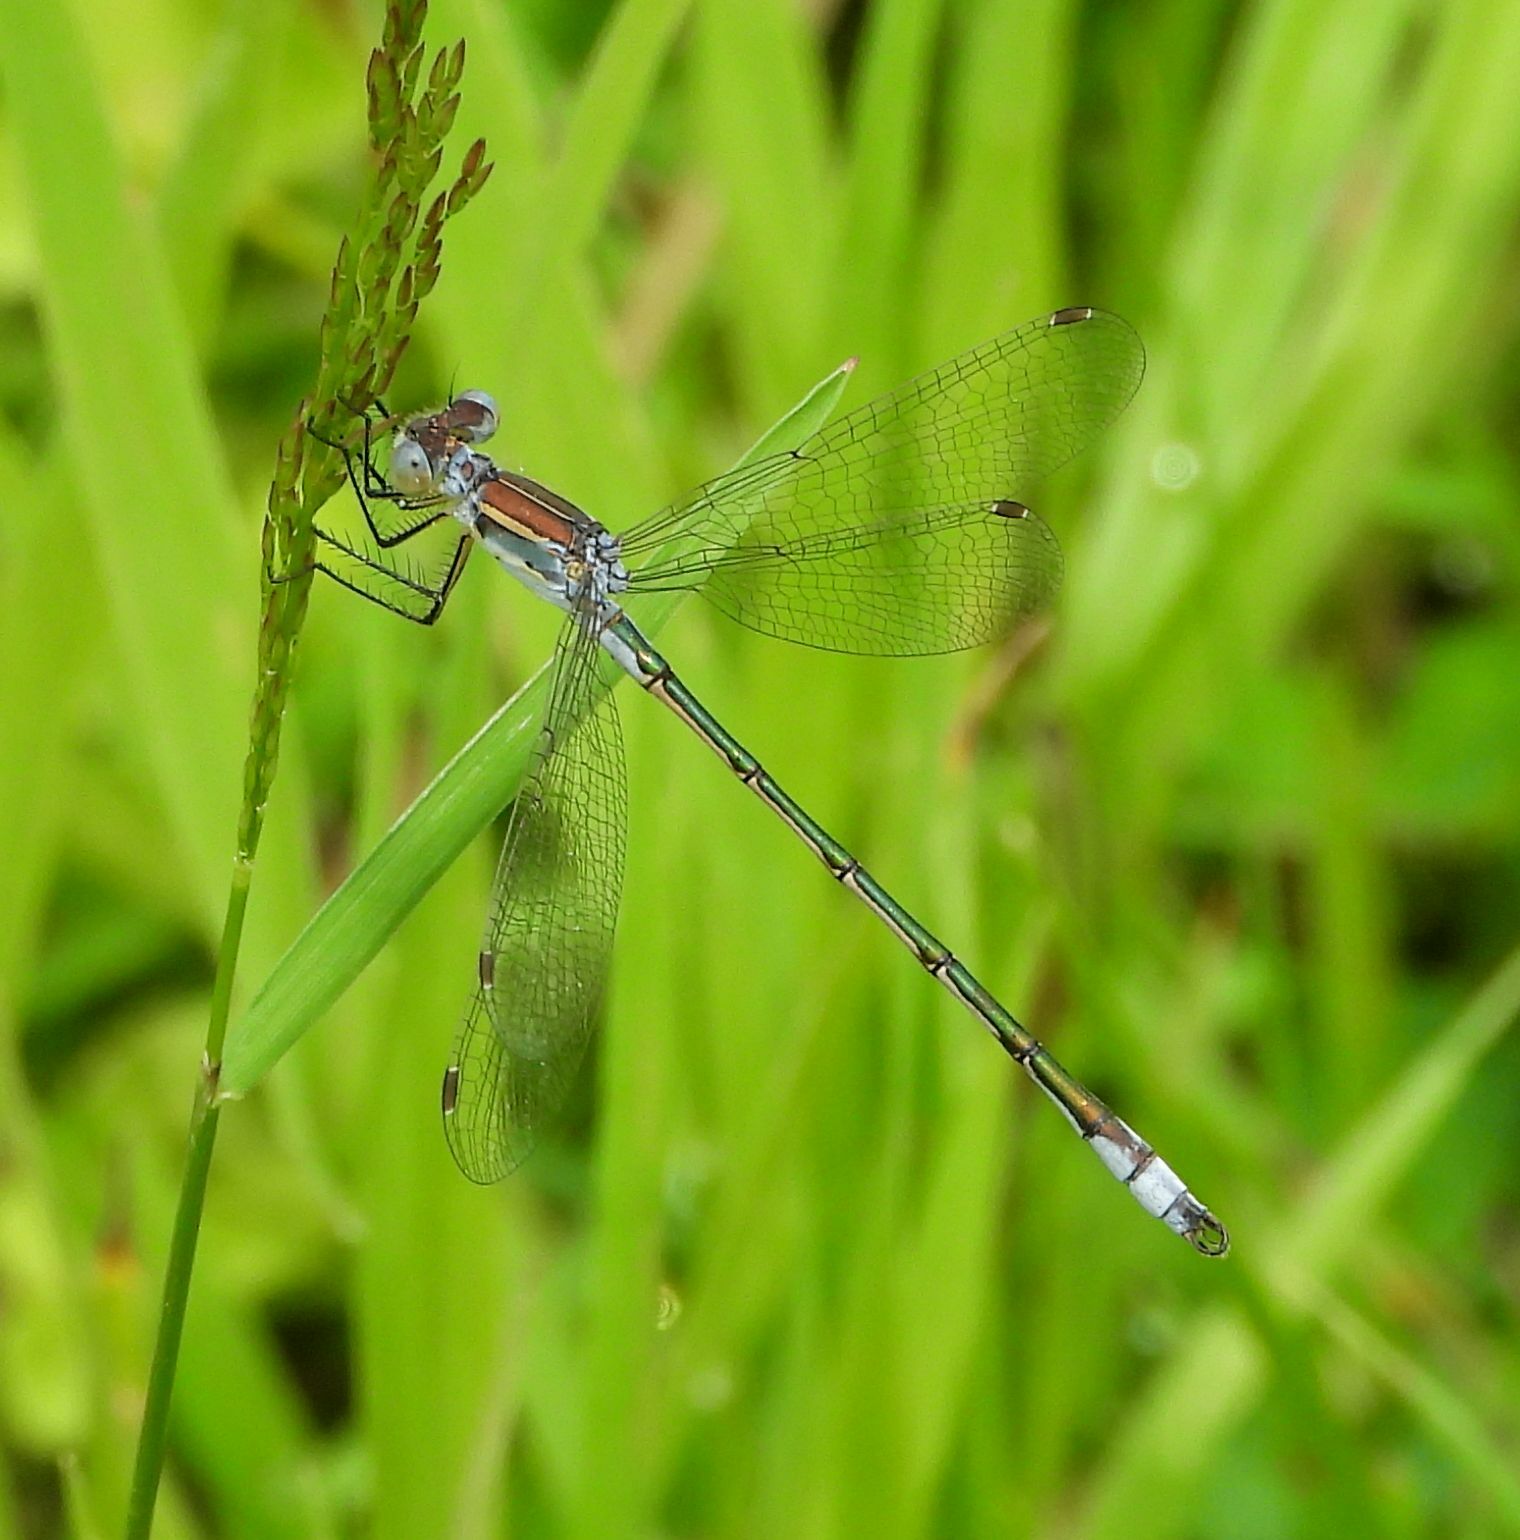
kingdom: Animalia
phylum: Arthropoda
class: Insecta
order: Odonata
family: Lestidae
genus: Lestes
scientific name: Lestes unguiculatus
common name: Lyre-tipped spreadwing
